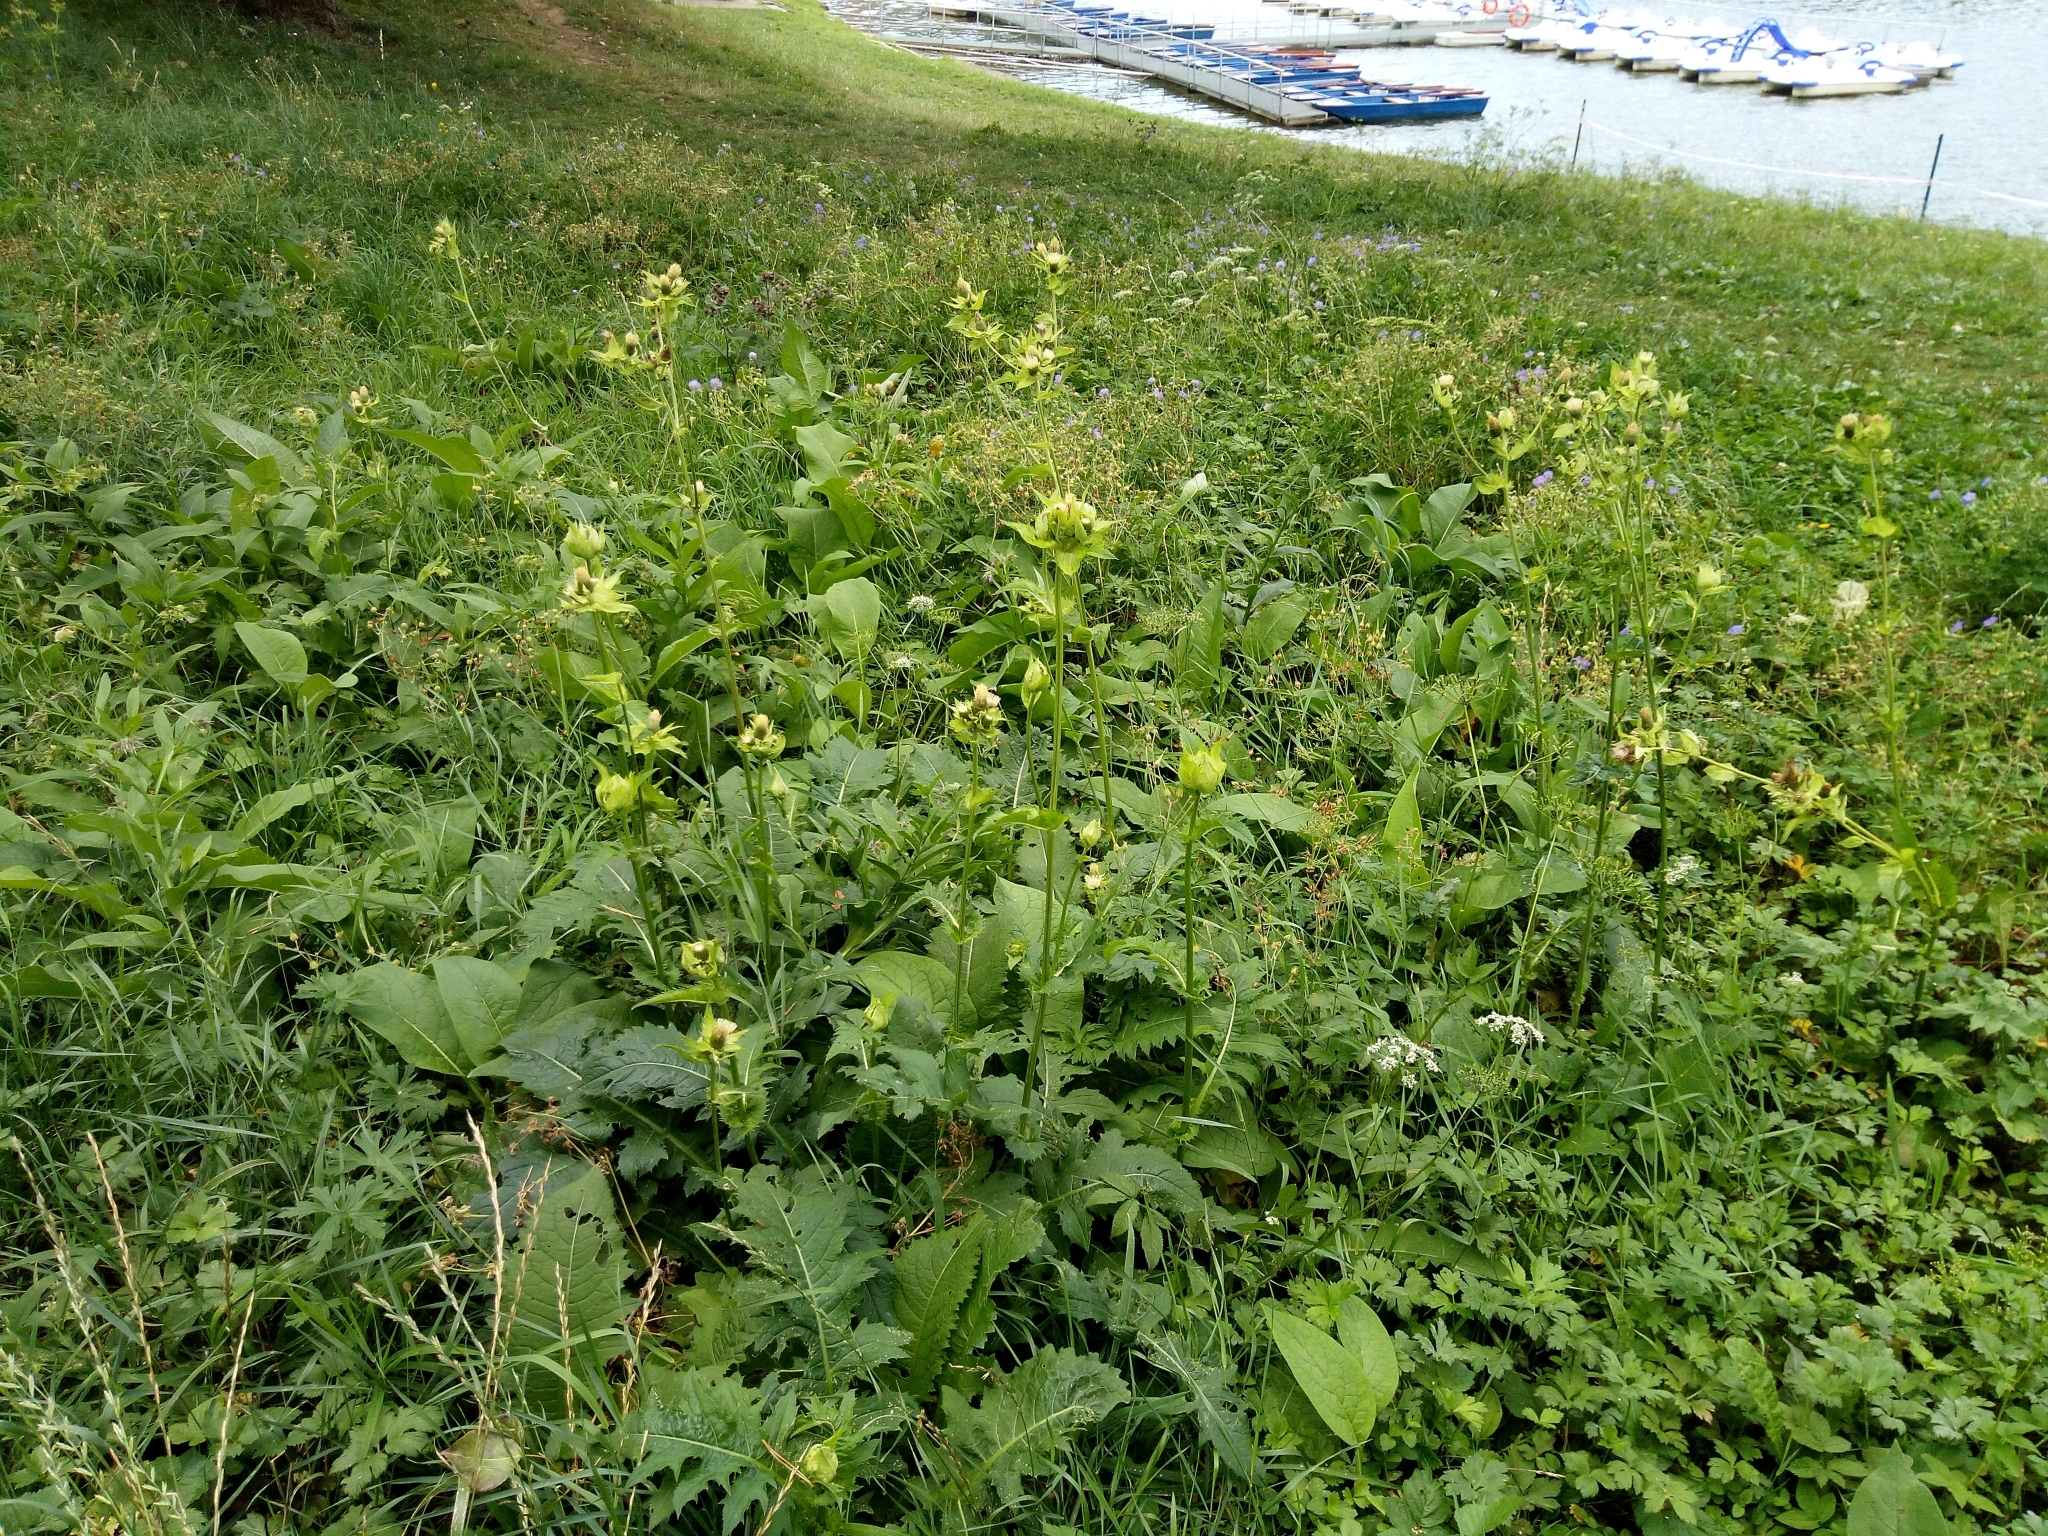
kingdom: Plantae
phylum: Tracheophyta
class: Magnoliopsida
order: Asterales
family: Asteraceae
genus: Cirsium
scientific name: Cirsium oleraceum
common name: Cabbage thistle
